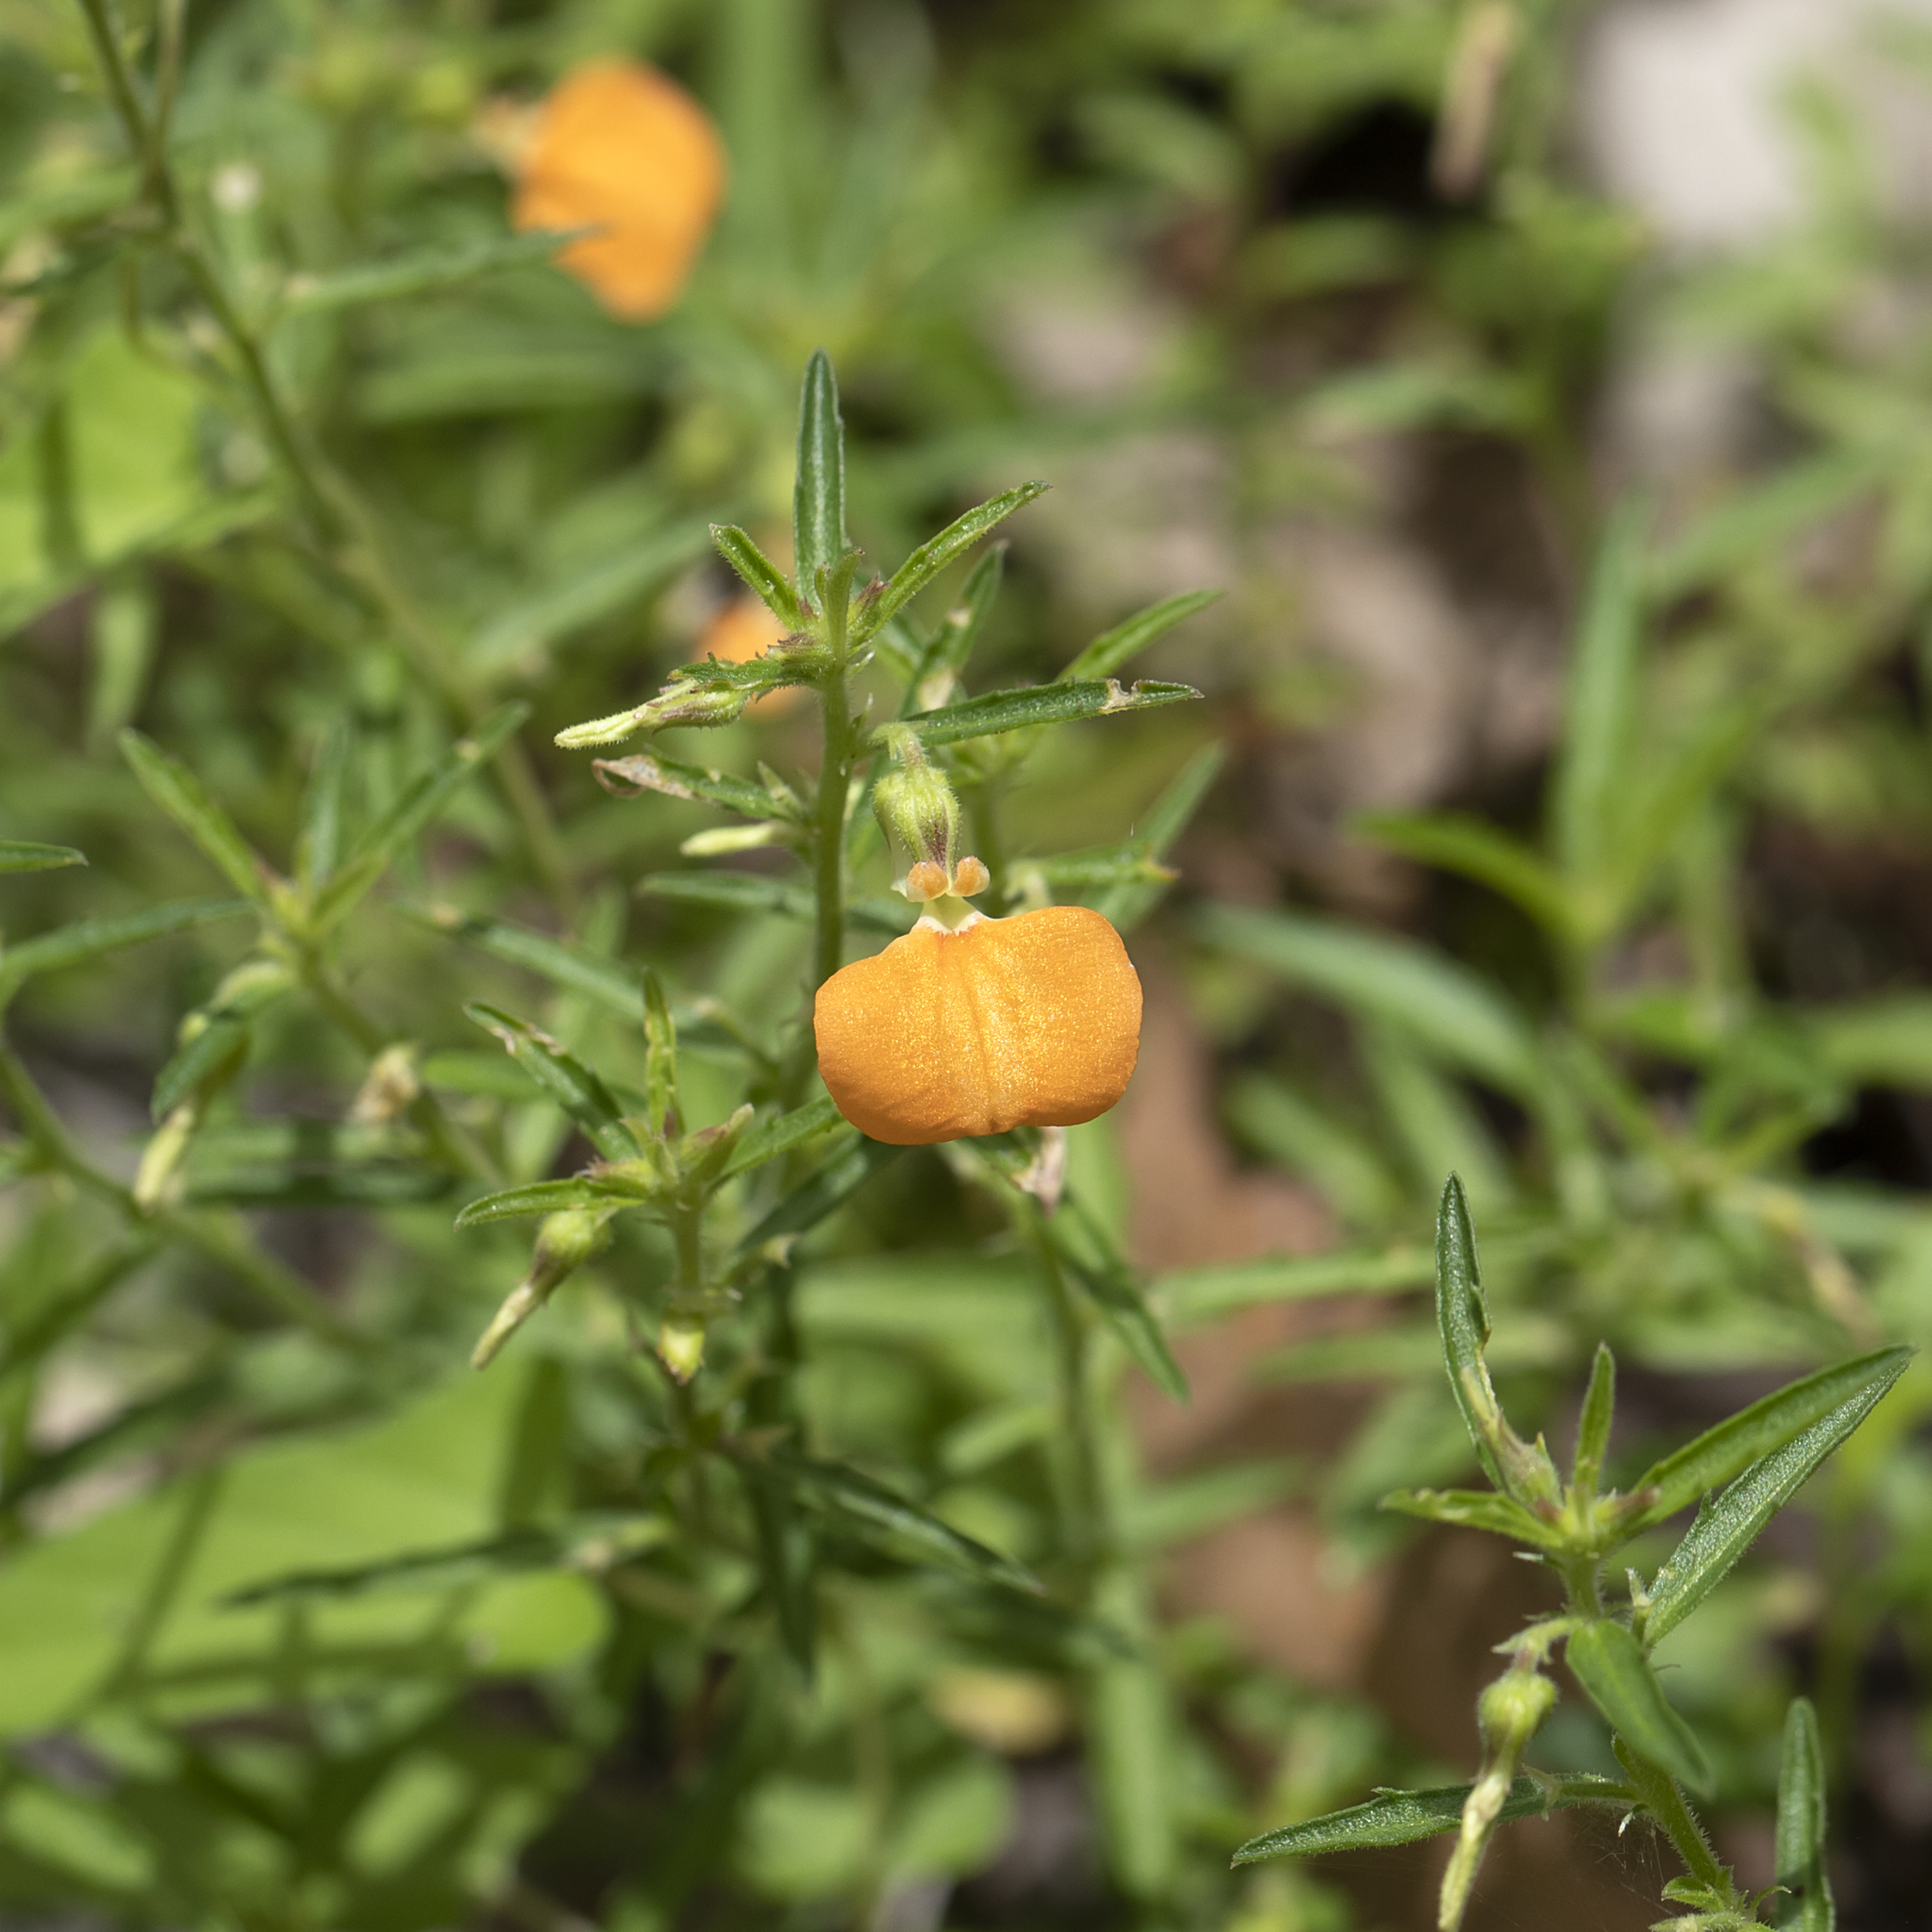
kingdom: Plantae
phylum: Tracheophyta
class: Magnoliopsida
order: Malpighiales
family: Violaceae
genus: Pigea
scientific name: Pigea aurantiaca
